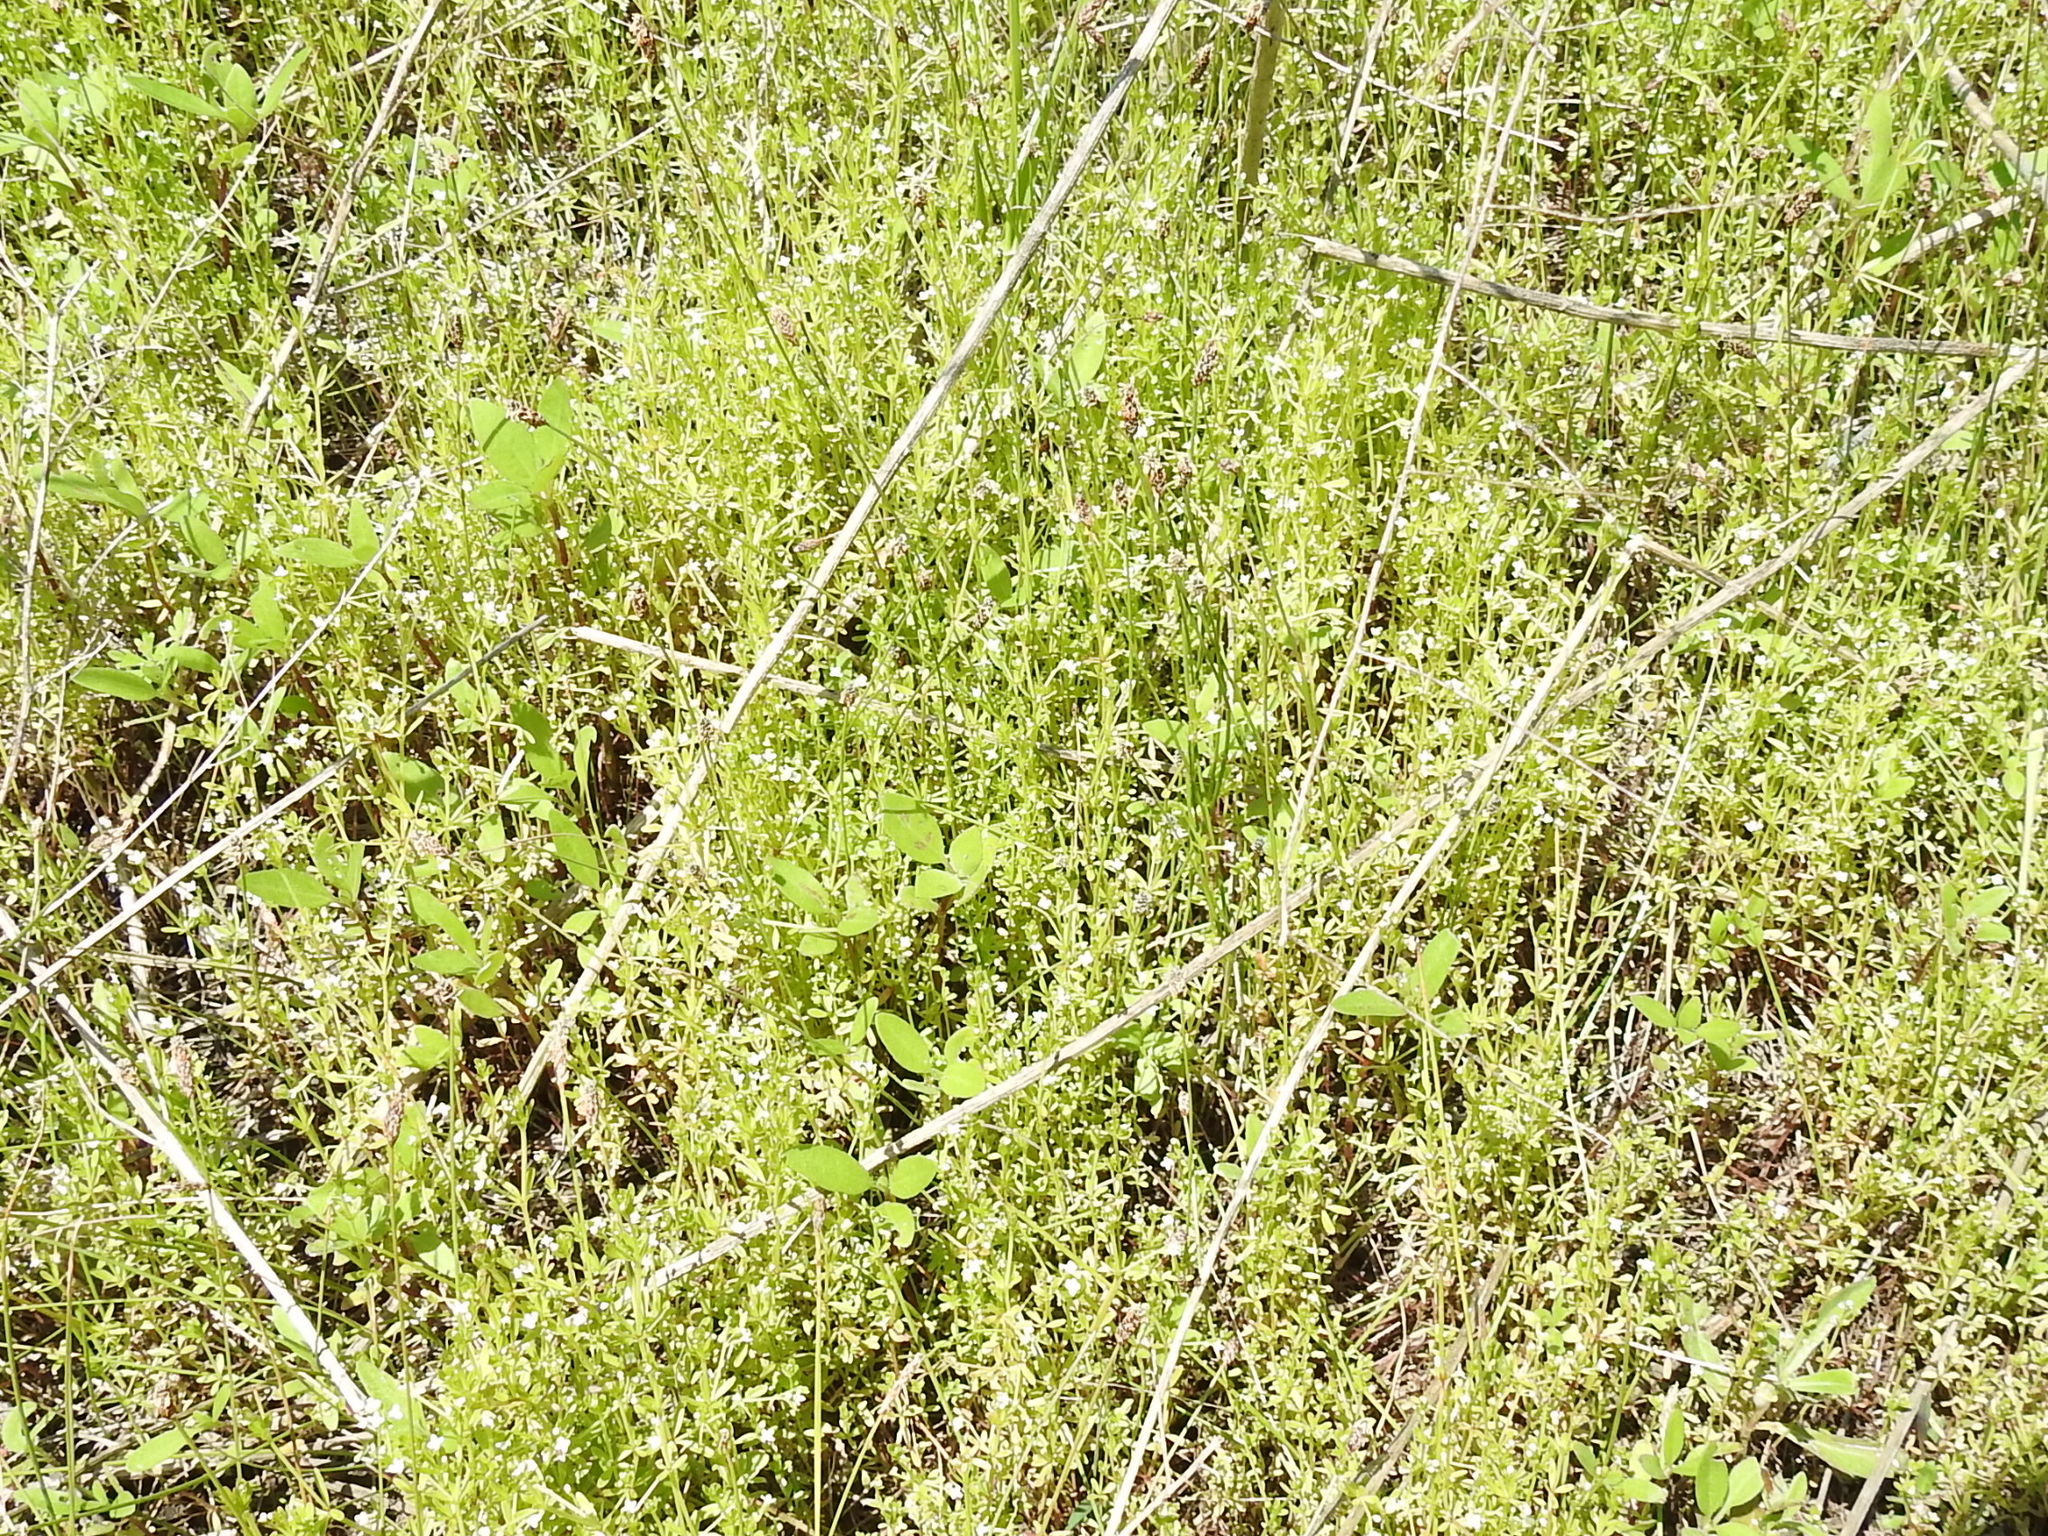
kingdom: Plantae
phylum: Tracheophyta
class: Magnoliopsida
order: Gentianales
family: Rubiaceae
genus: Galium
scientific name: Galium tinctorium
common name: Bedstraw
